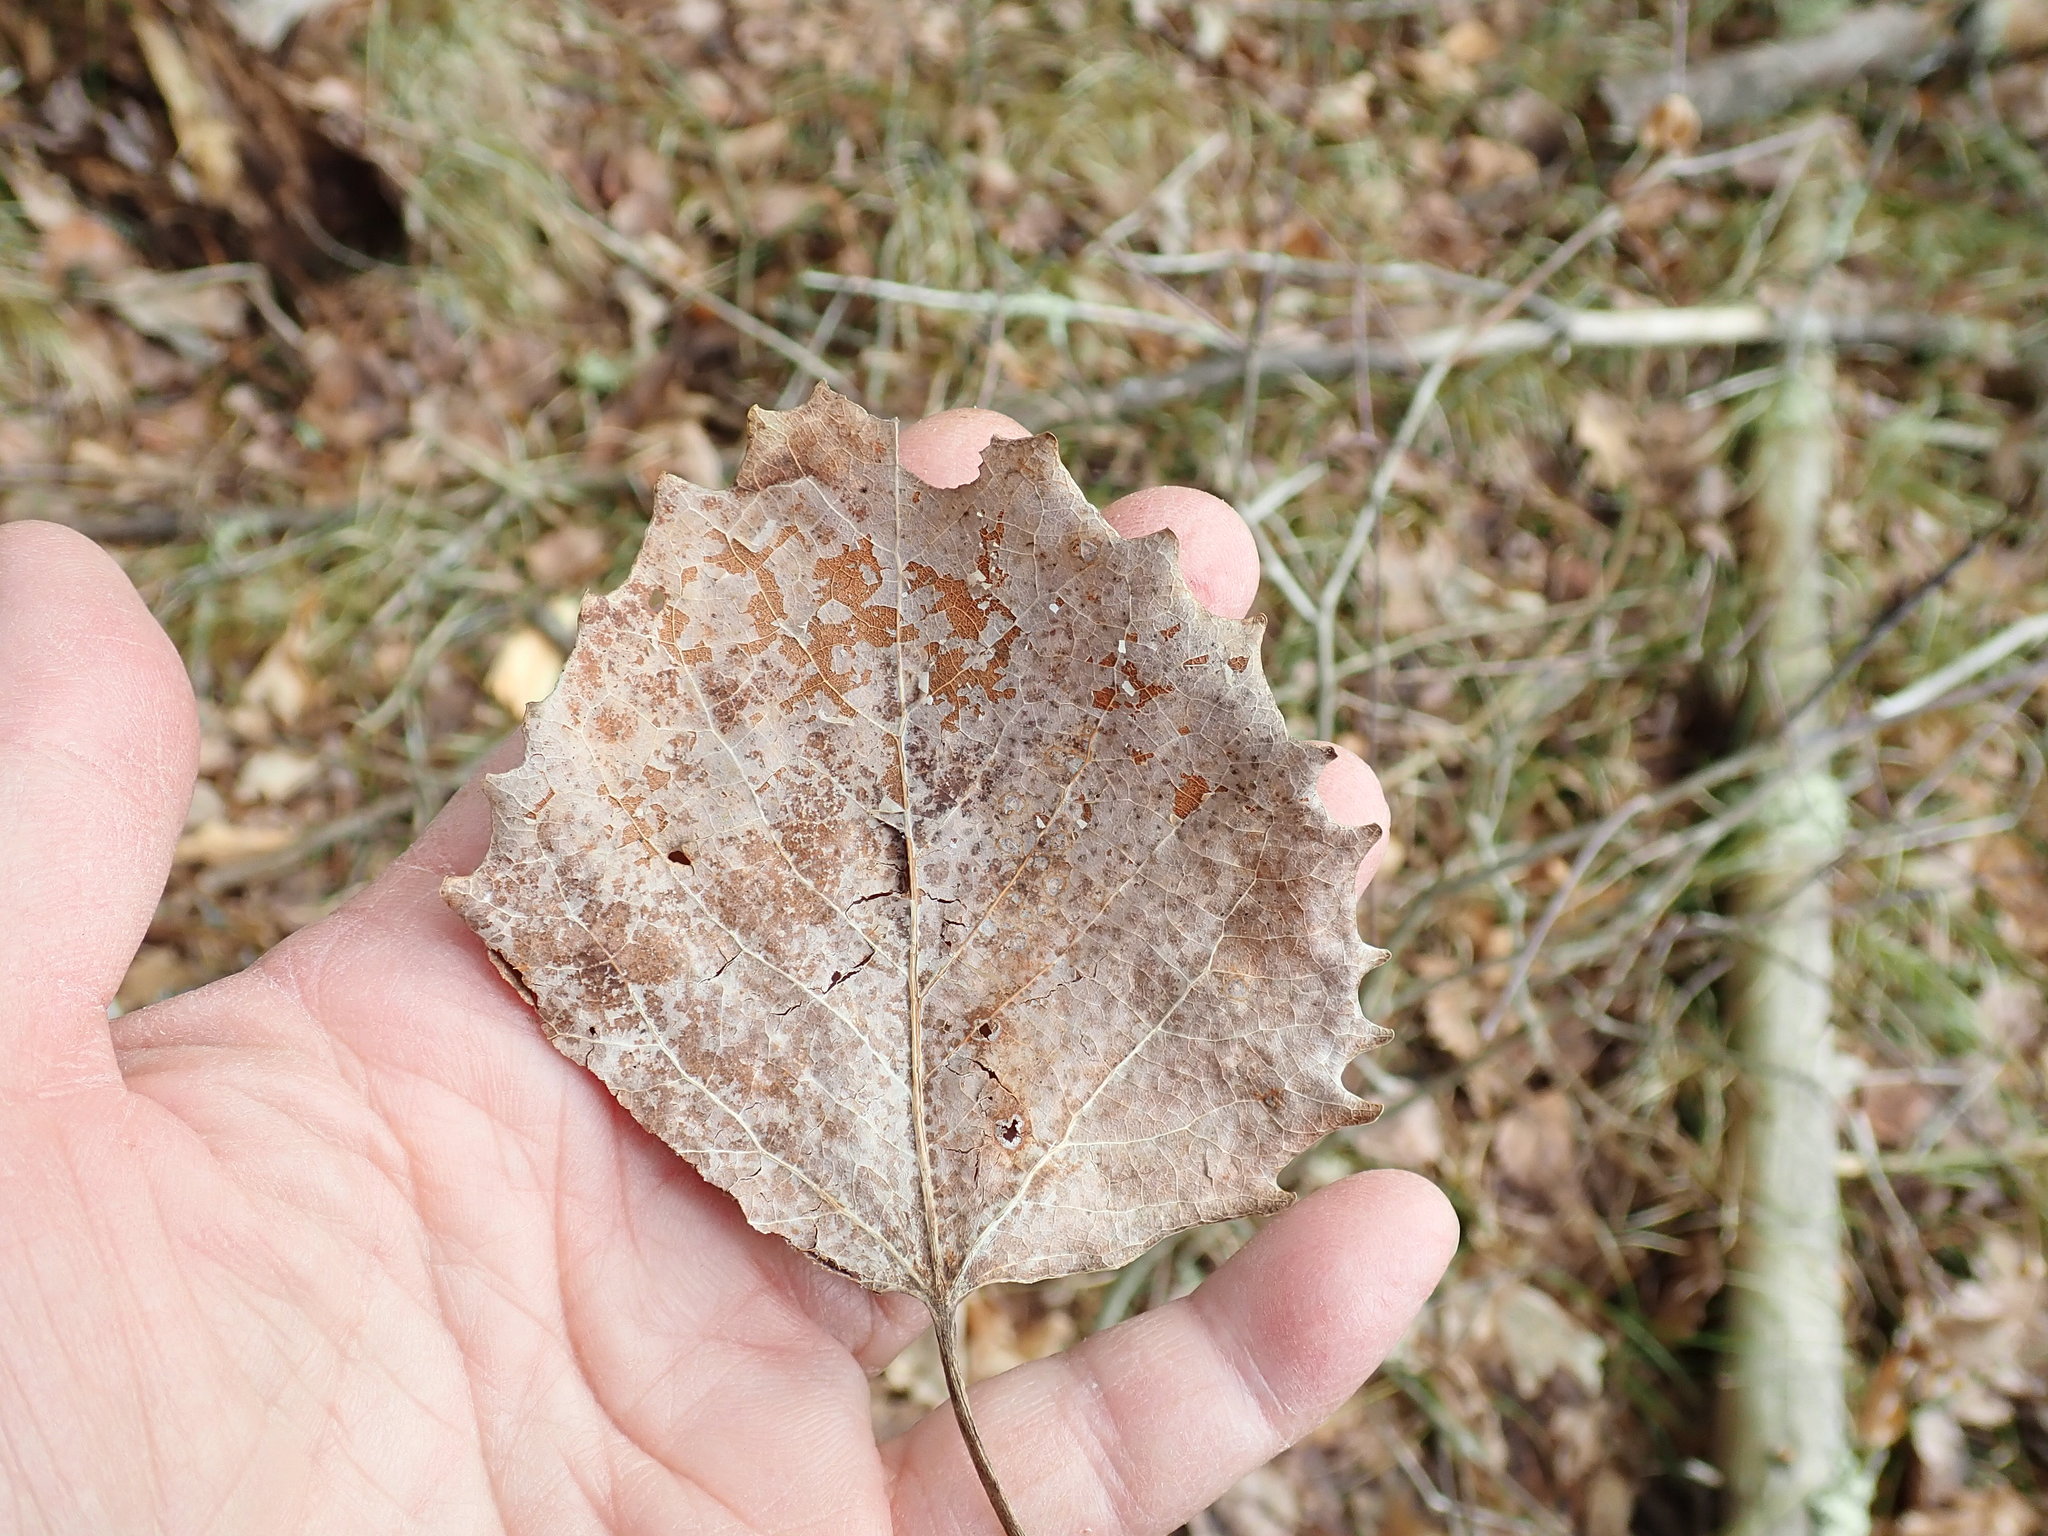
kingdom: Plantae
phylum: Tracheophyta
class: Magnoliopsida
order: Malpighiales
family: Salicaceae
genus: Populus
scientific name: Populus grandidentata
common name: Bigtooth aspen
